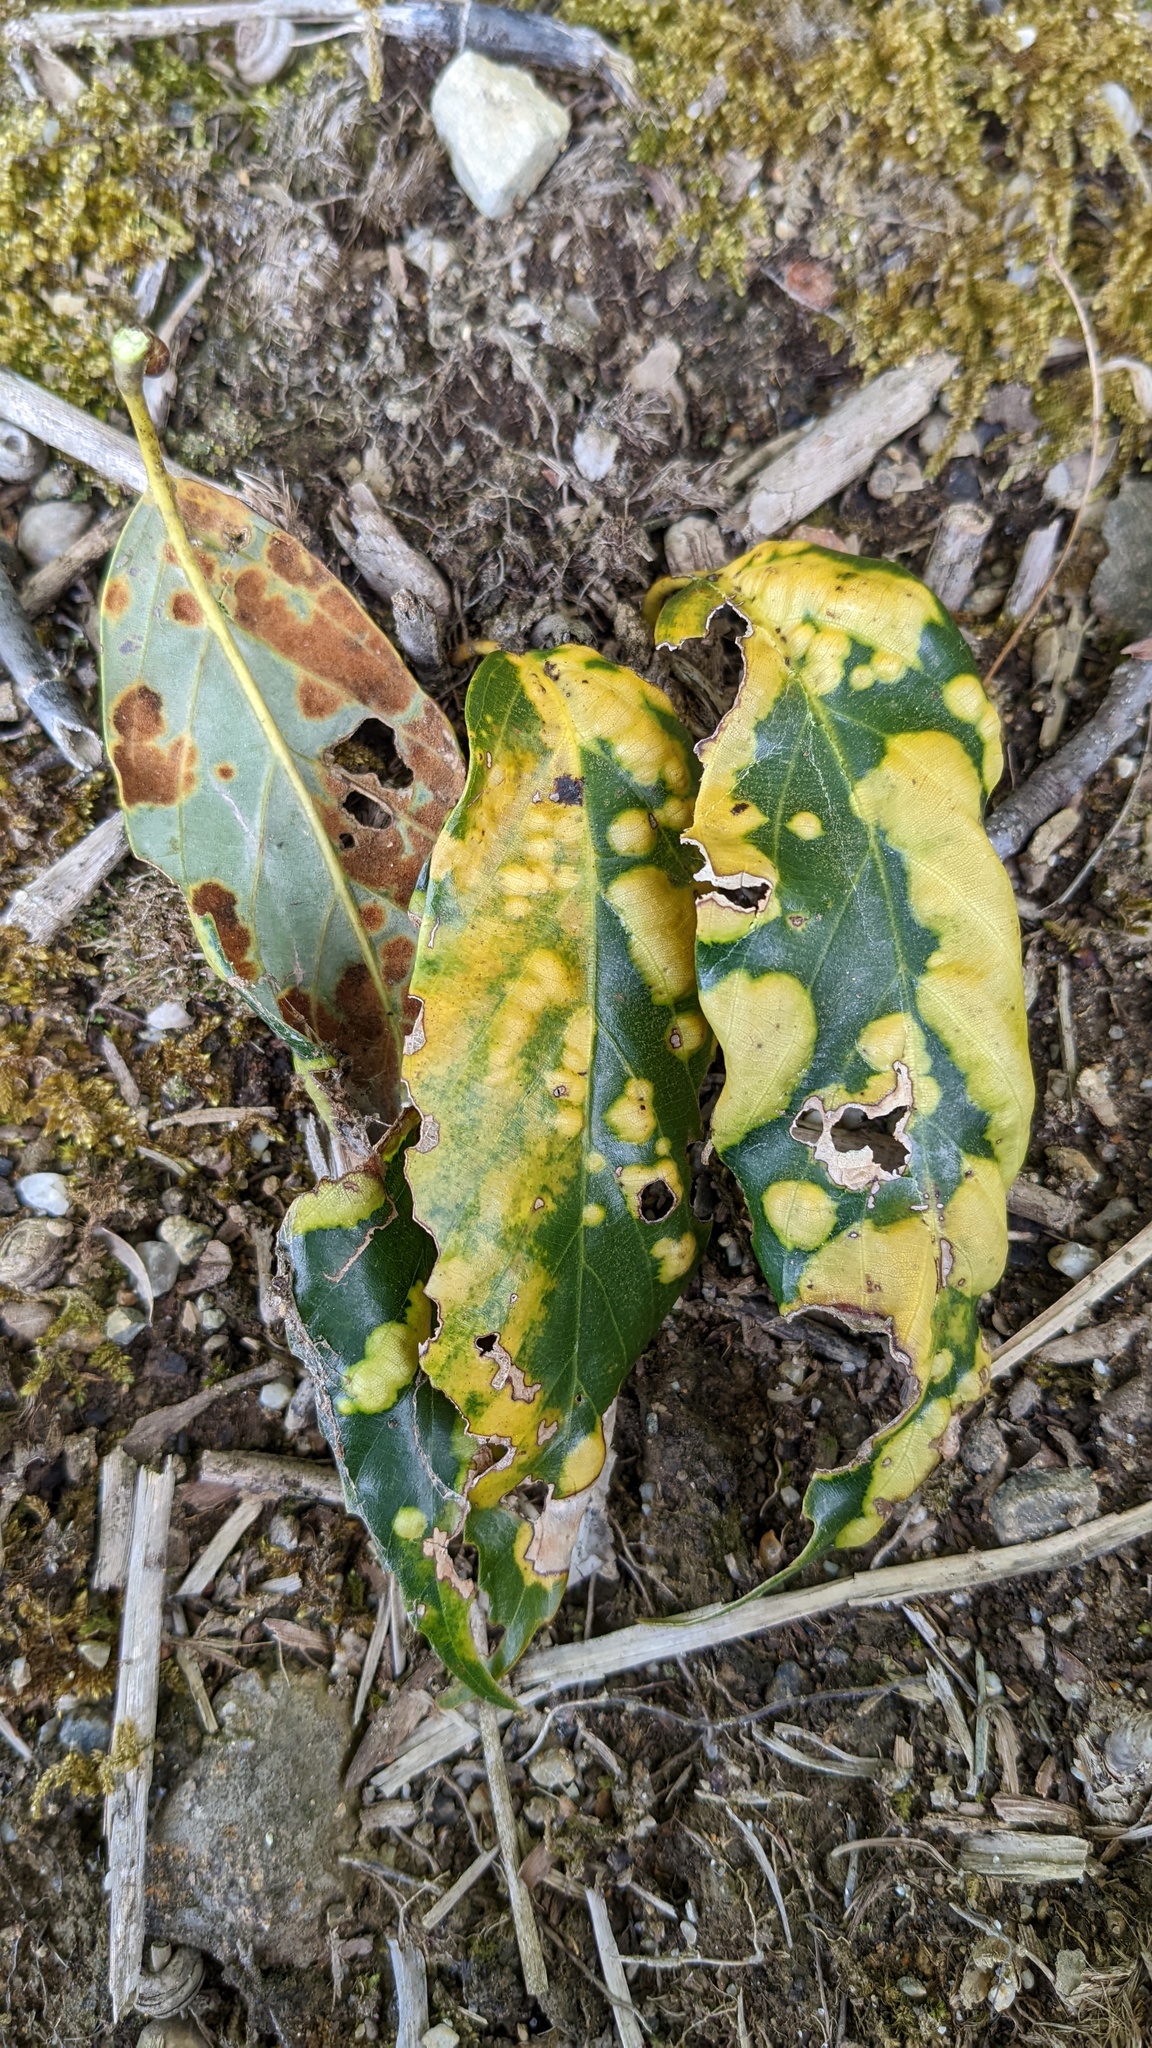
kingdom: Fungi
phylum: Ascomycota
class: Leotiomycetes
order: Helotiales
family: Erysiphaceae
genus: Cystotheca
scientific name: Cystotheca wrightii
